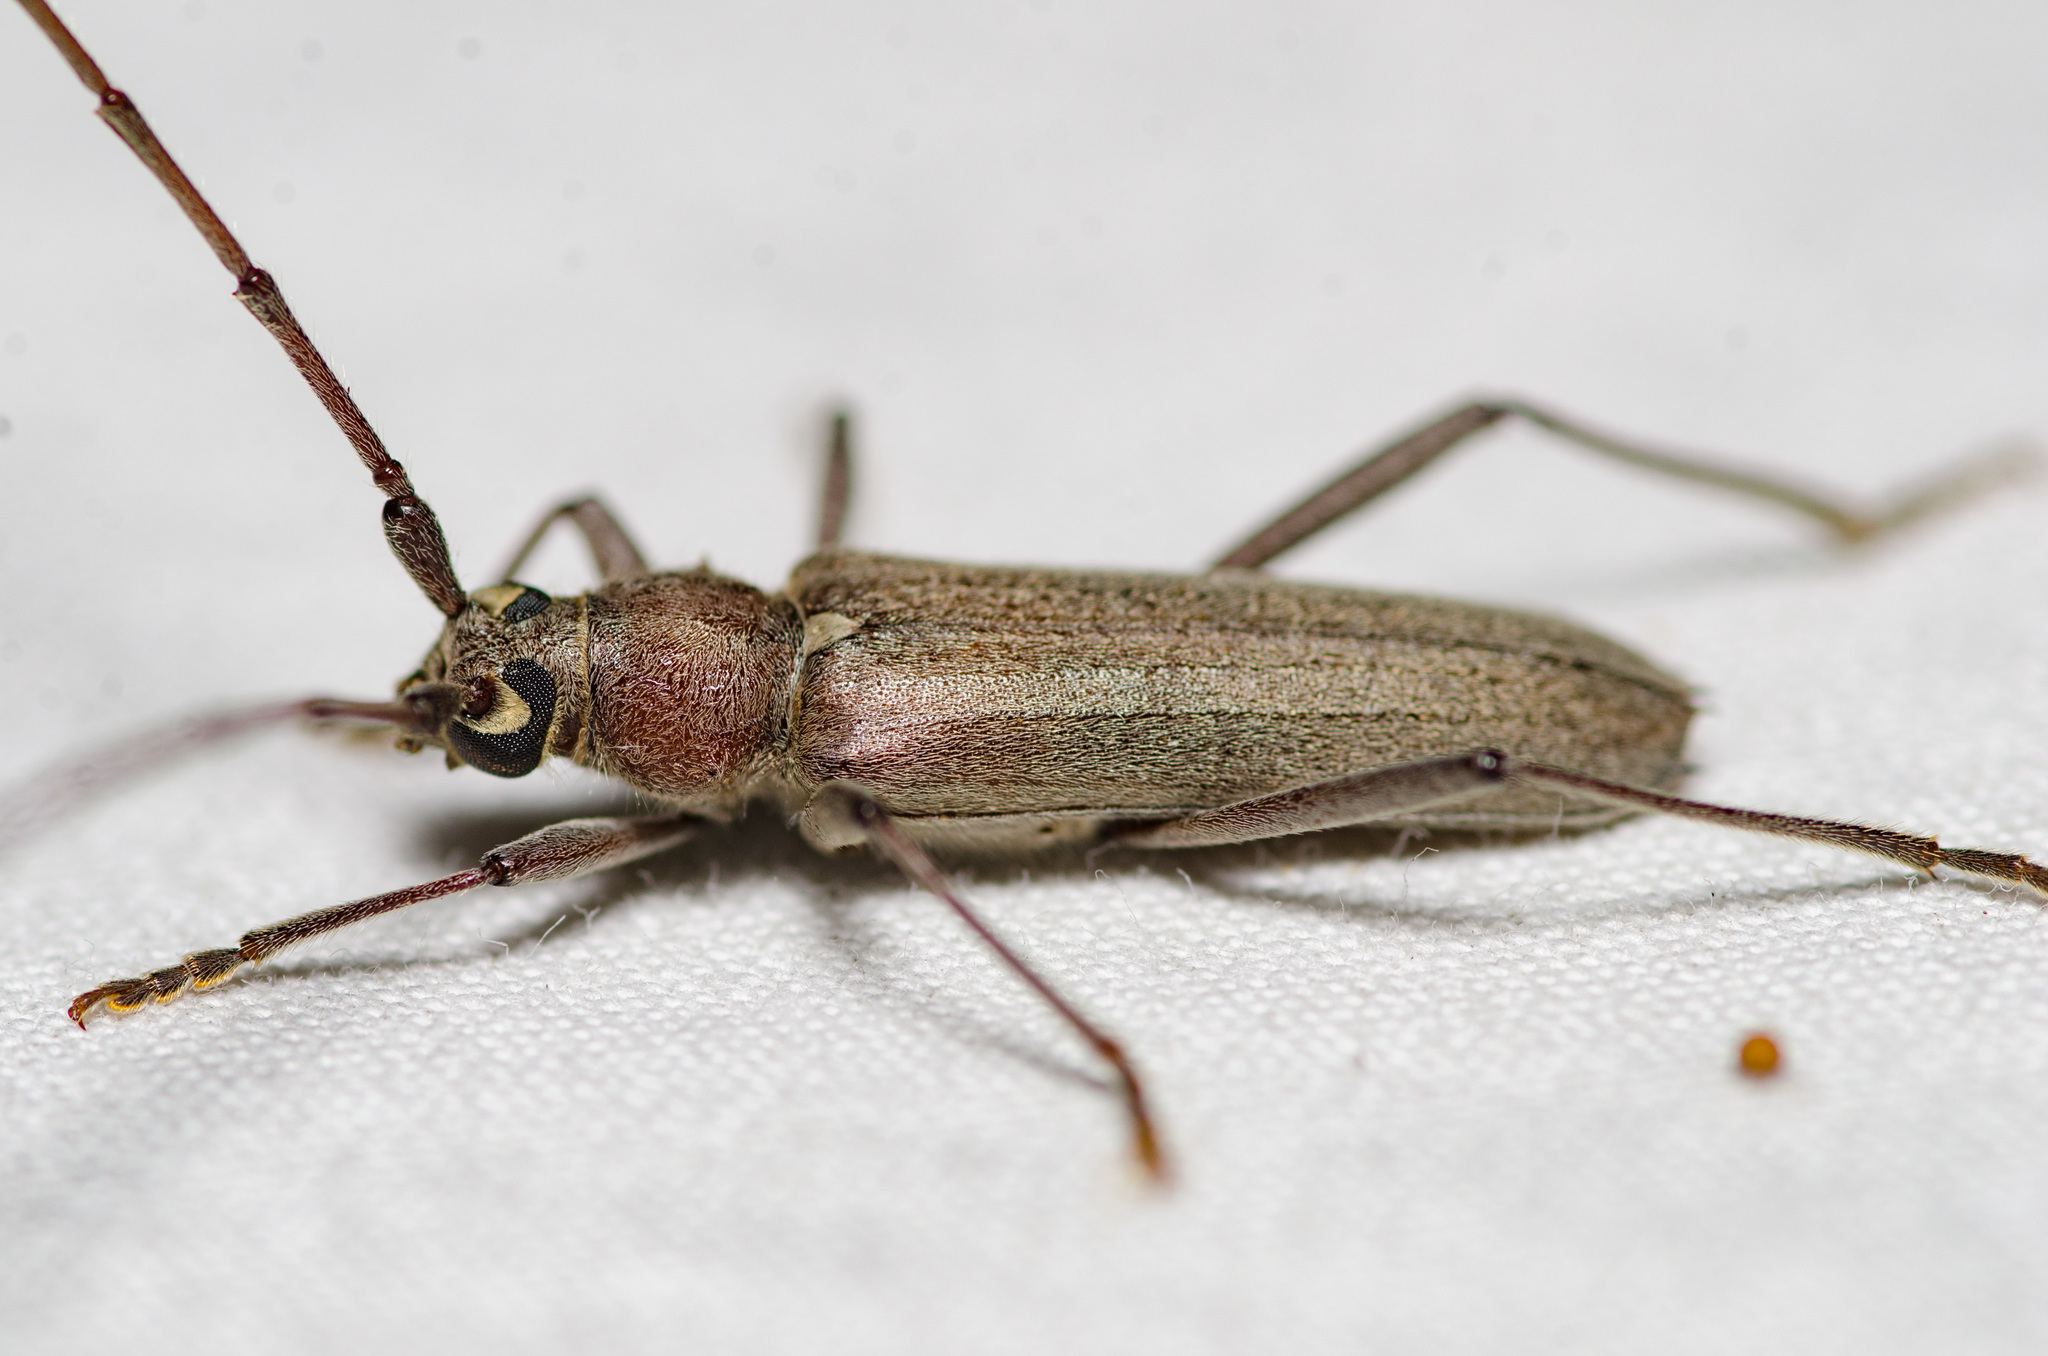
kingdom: Animalia
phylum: Arthropoda
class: Insecta
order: Coleoptera
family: Cerambycidae
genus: Knulliana
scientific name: Knulliana cincta
